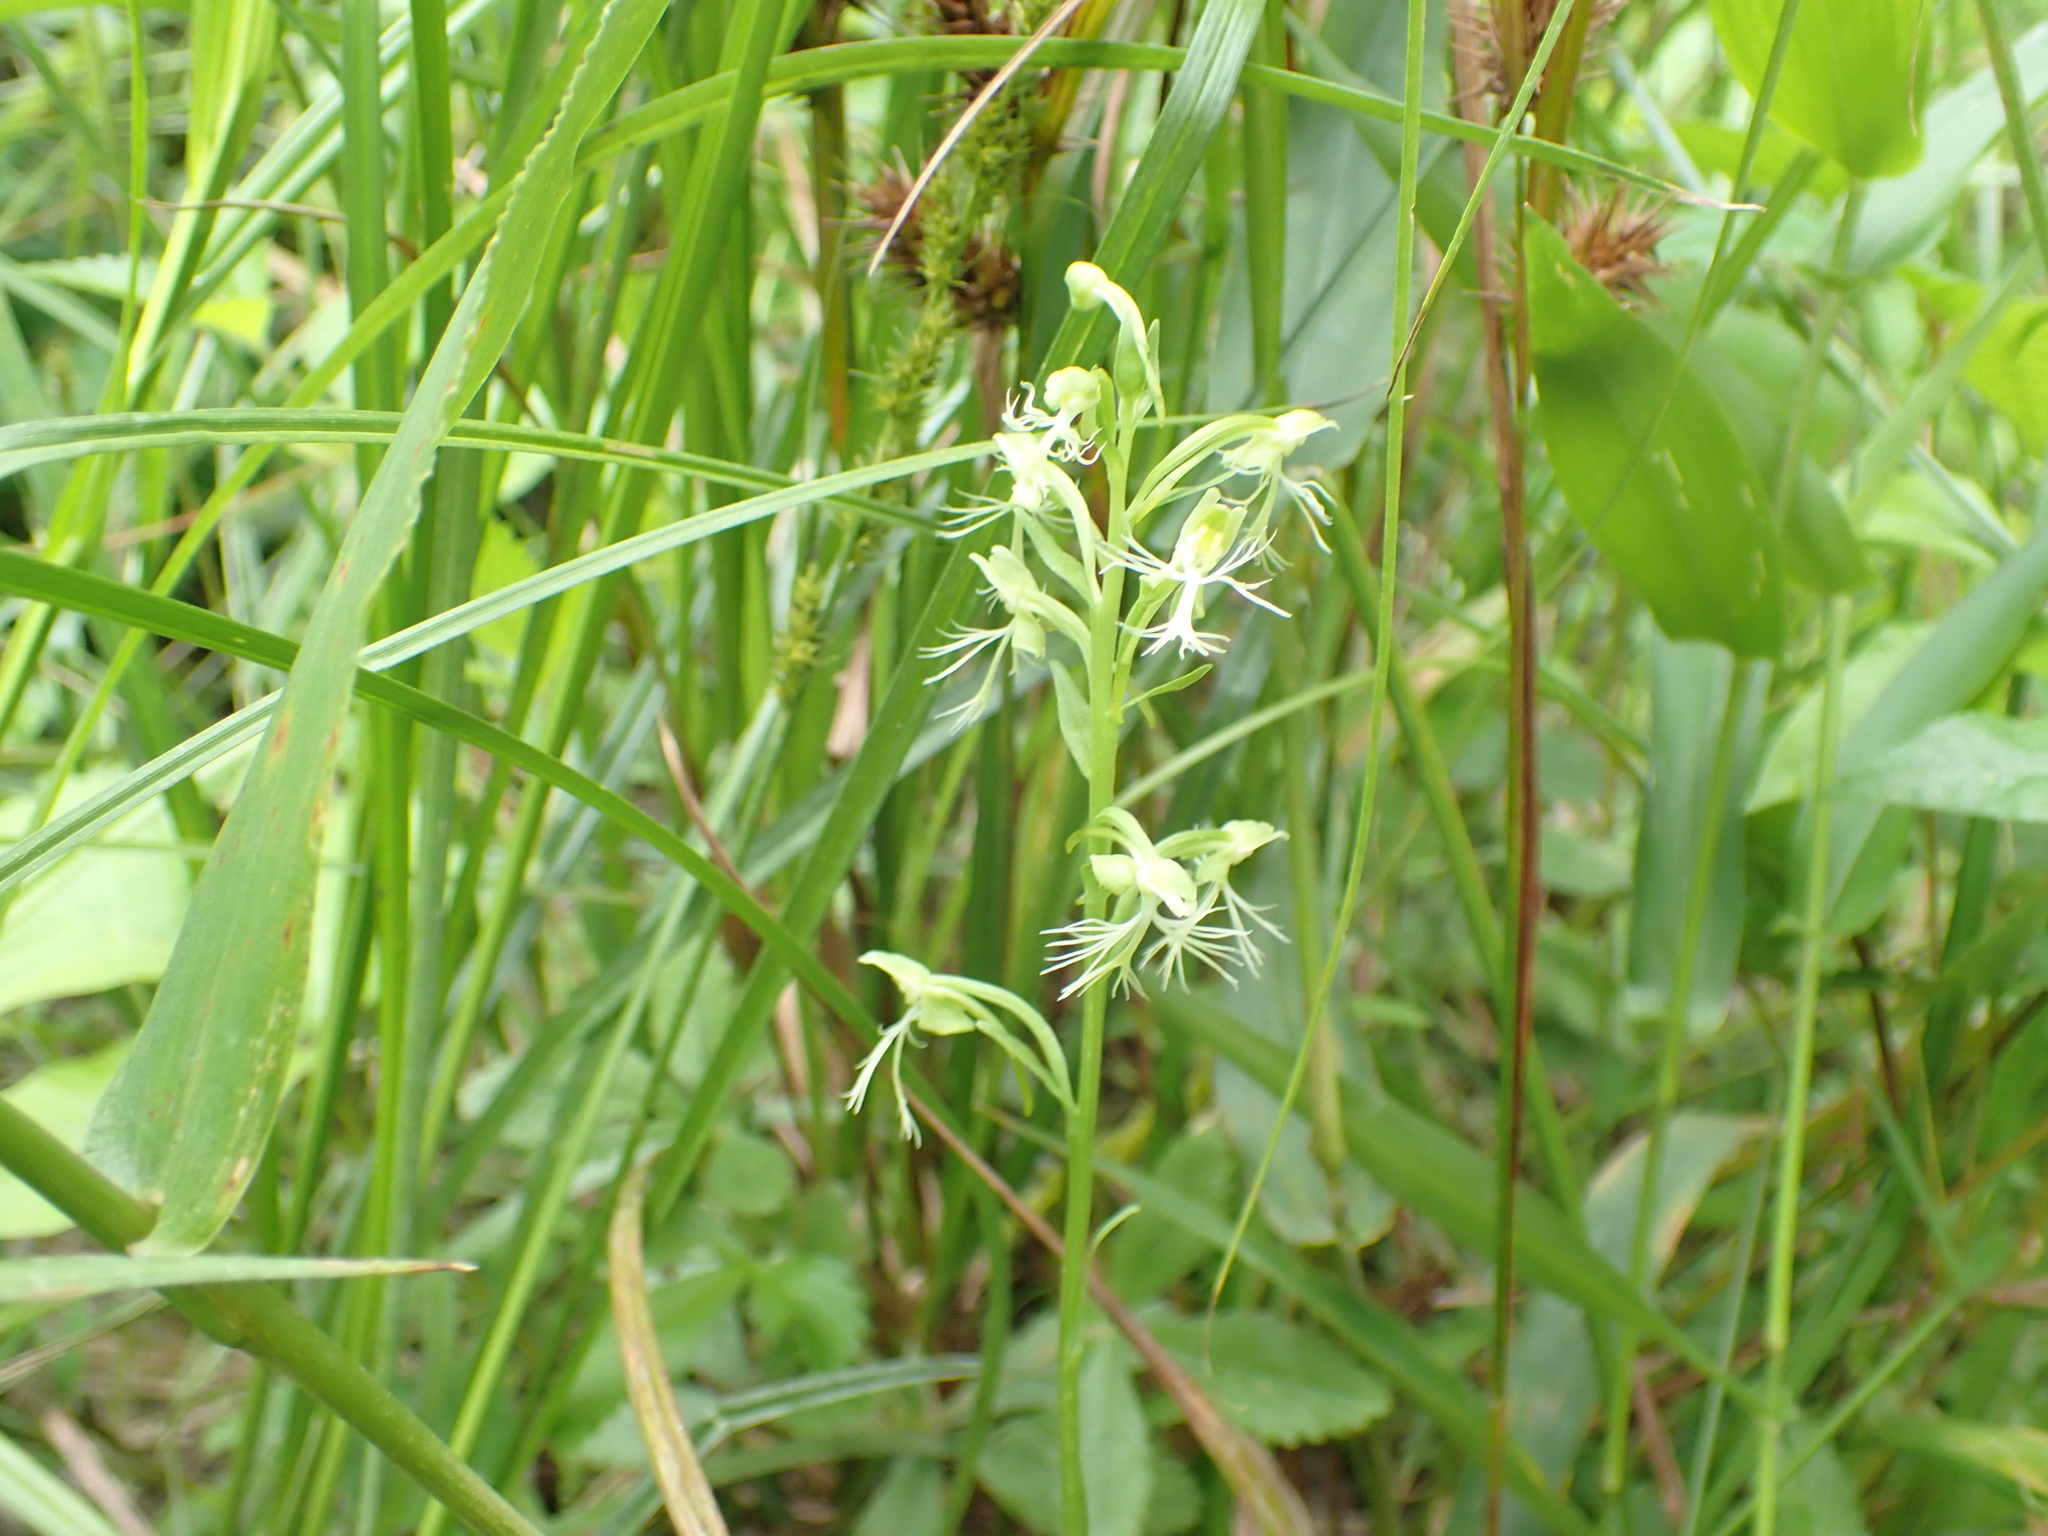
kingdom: Plantae
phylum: Tracheophyta
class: Liliopsida
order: Asparagales
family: Orchidaceae
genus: Platanthera
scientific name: Platanthera lacera
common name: Green fringed orchid
